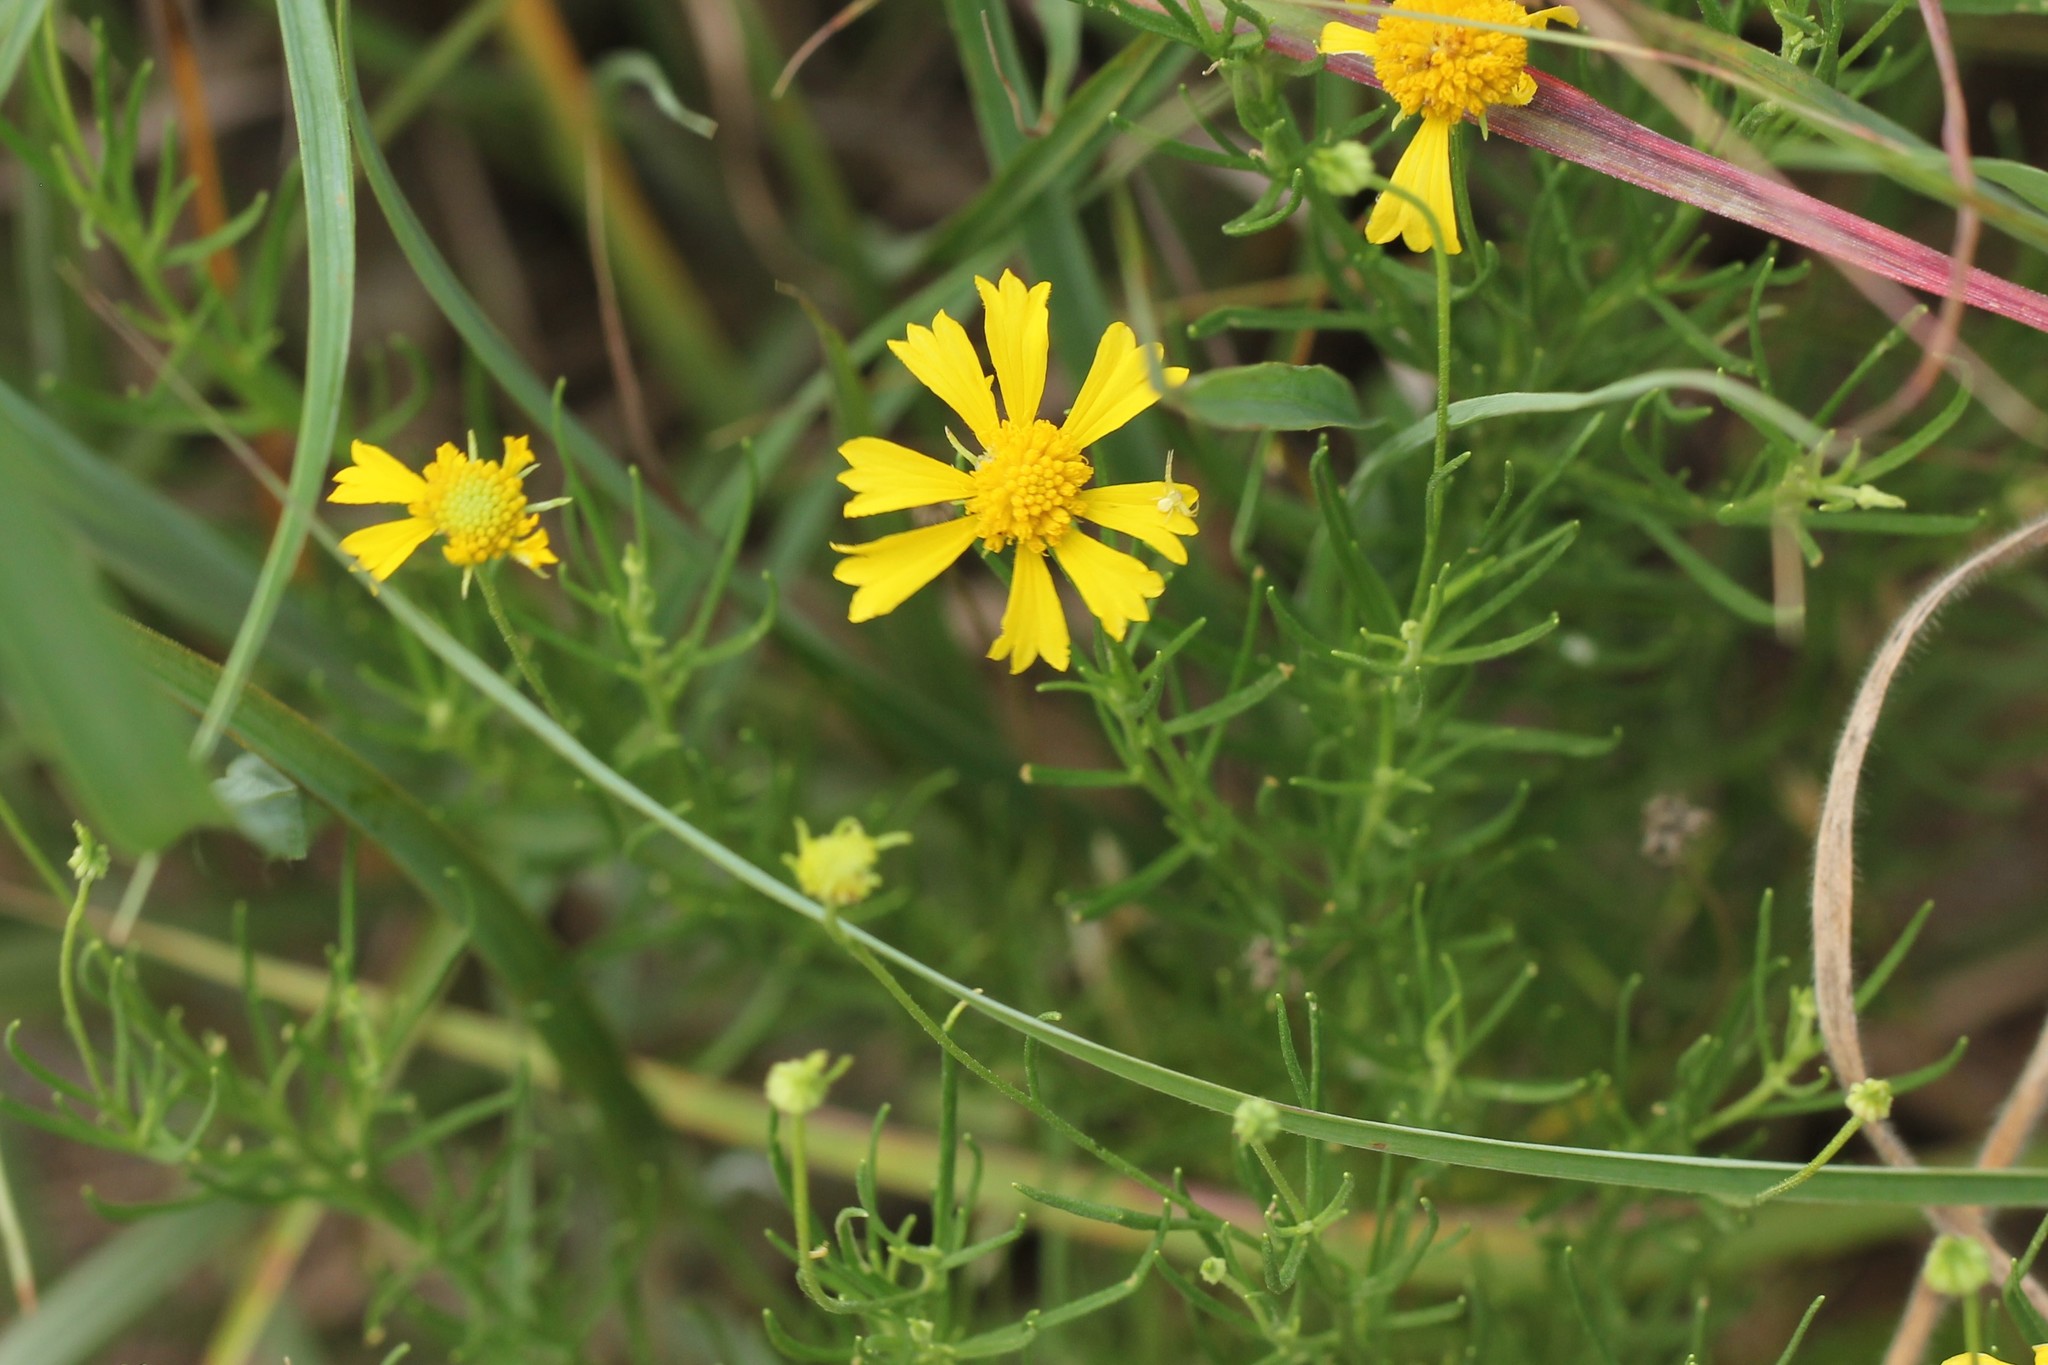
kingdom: Plantae
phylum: Tracheophyta
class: Magnoliopsida
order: Asterales
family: Asteraceae
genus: Helenium
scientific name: Helenium amarum
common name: Bitter sneezeweed
